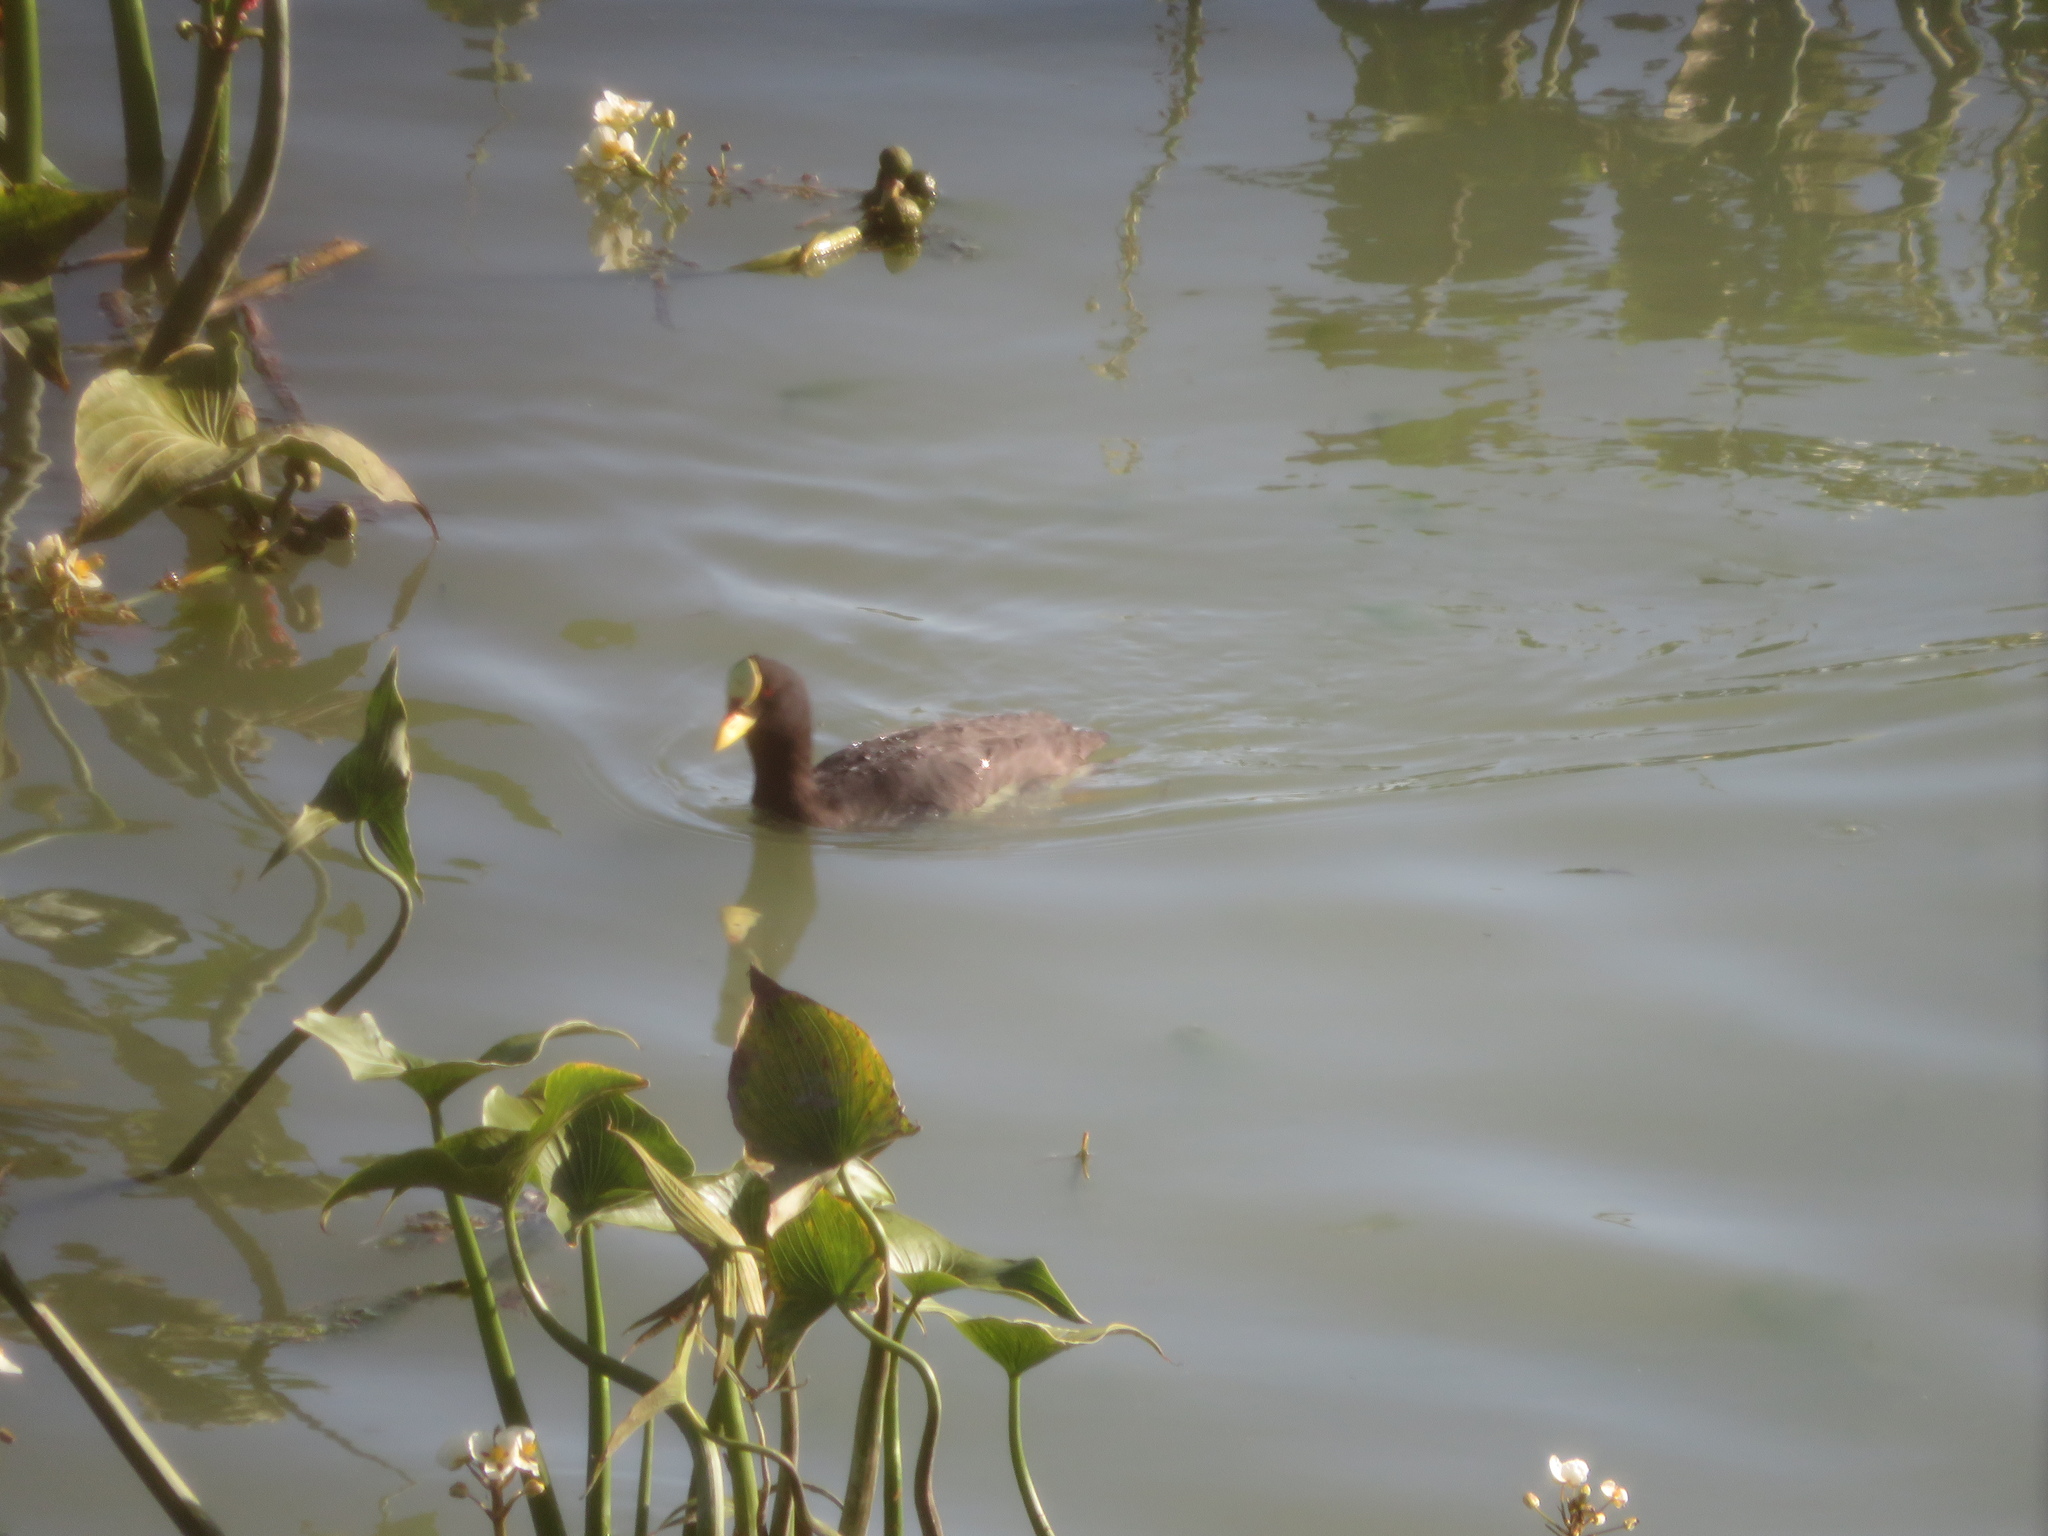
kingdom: Animalia
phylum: Chordata
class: Aves
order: Gruiformes
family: Rallidae
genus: Fulica
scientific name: Fulica armillata
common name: Red-gartered coot
